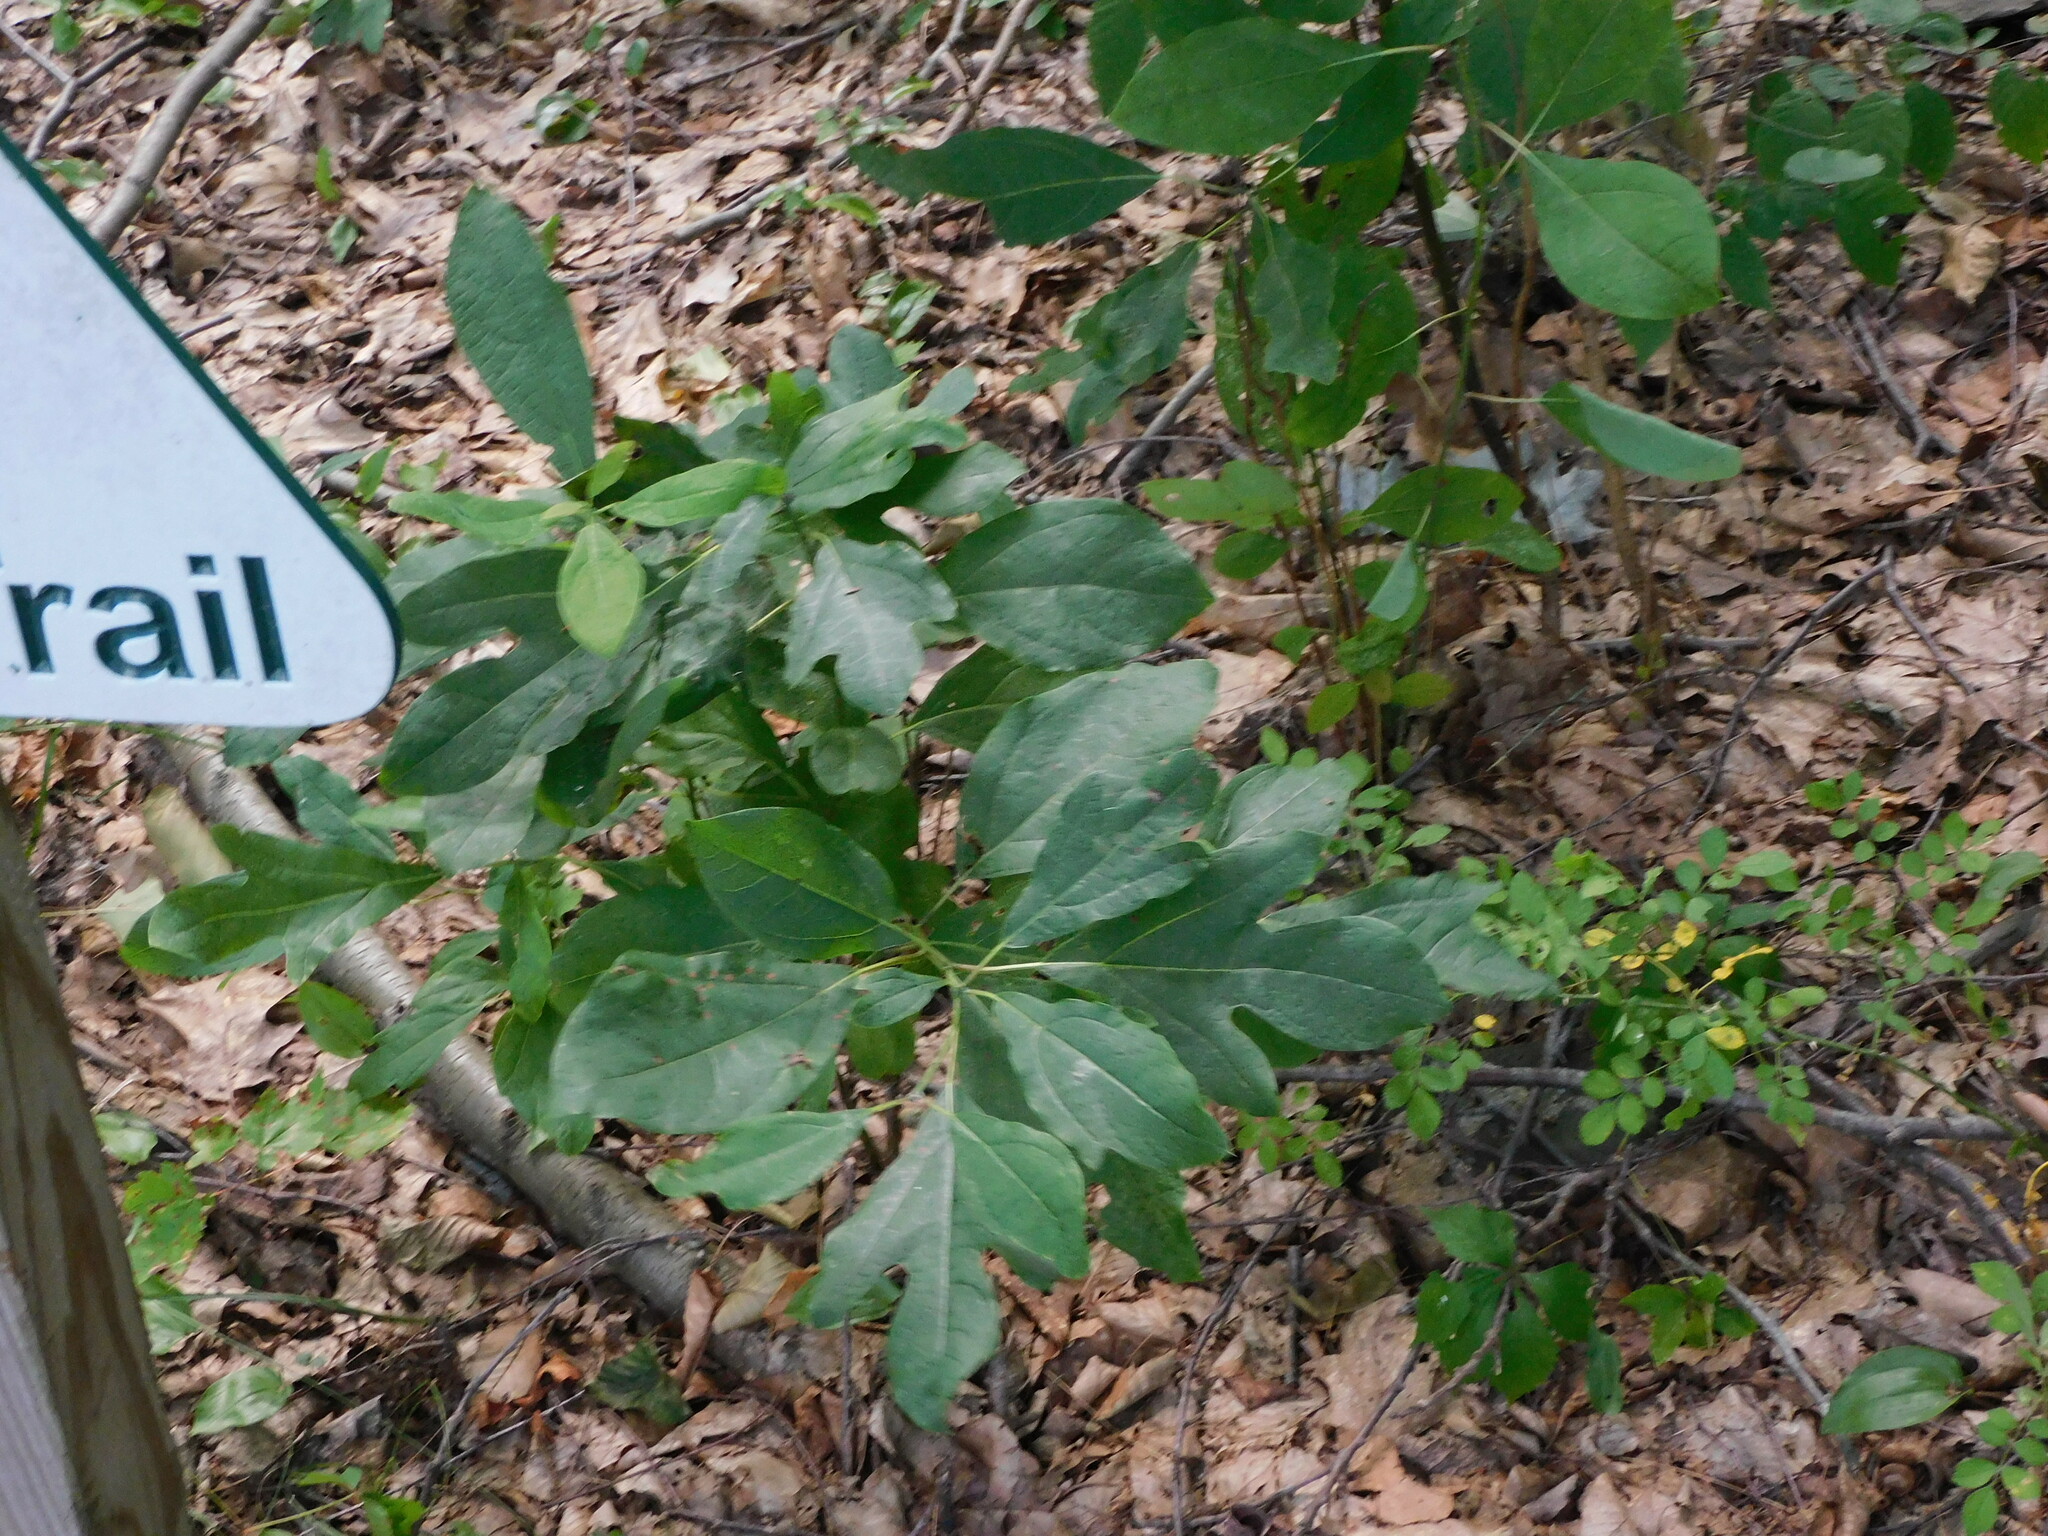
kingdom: Plantae
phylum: Tracheophyta
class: Magnoliopsida
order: Laurales
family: Lauraceae
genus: Sassafras
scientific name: Sassafras albidum
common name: Sassafras
